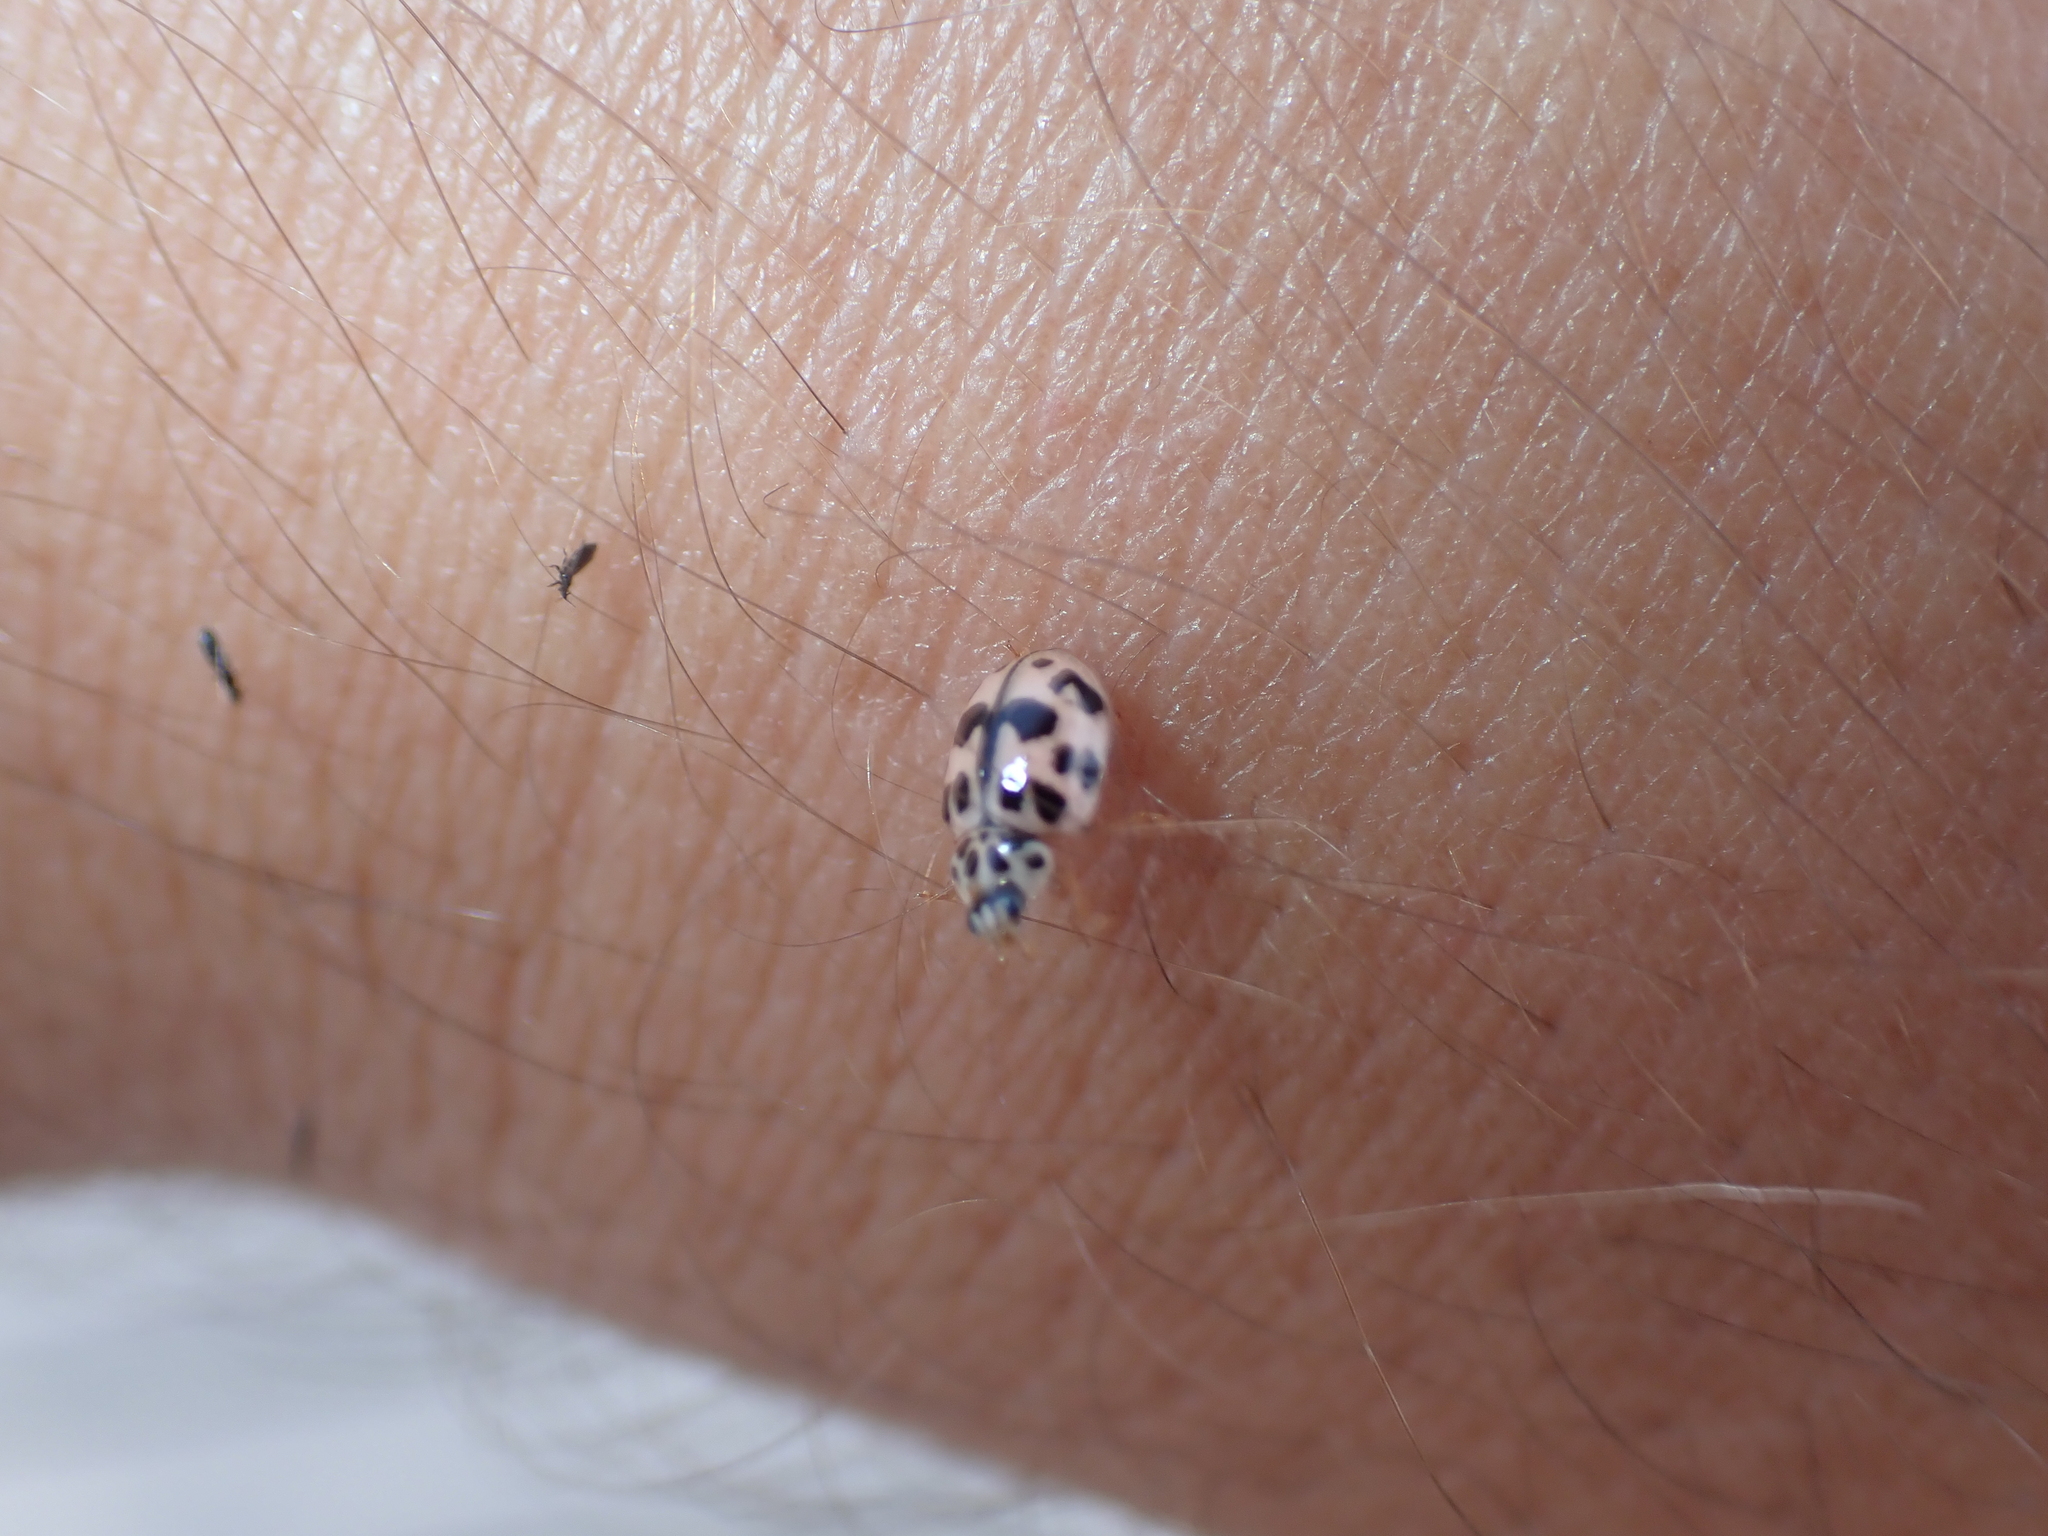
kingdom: Animalia
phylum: Arthropoda
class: Insecta
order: Coleoptera
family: Coccinellidae
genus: Oenopia
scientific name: Oenopia conglobata
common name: Ladybird beetle
